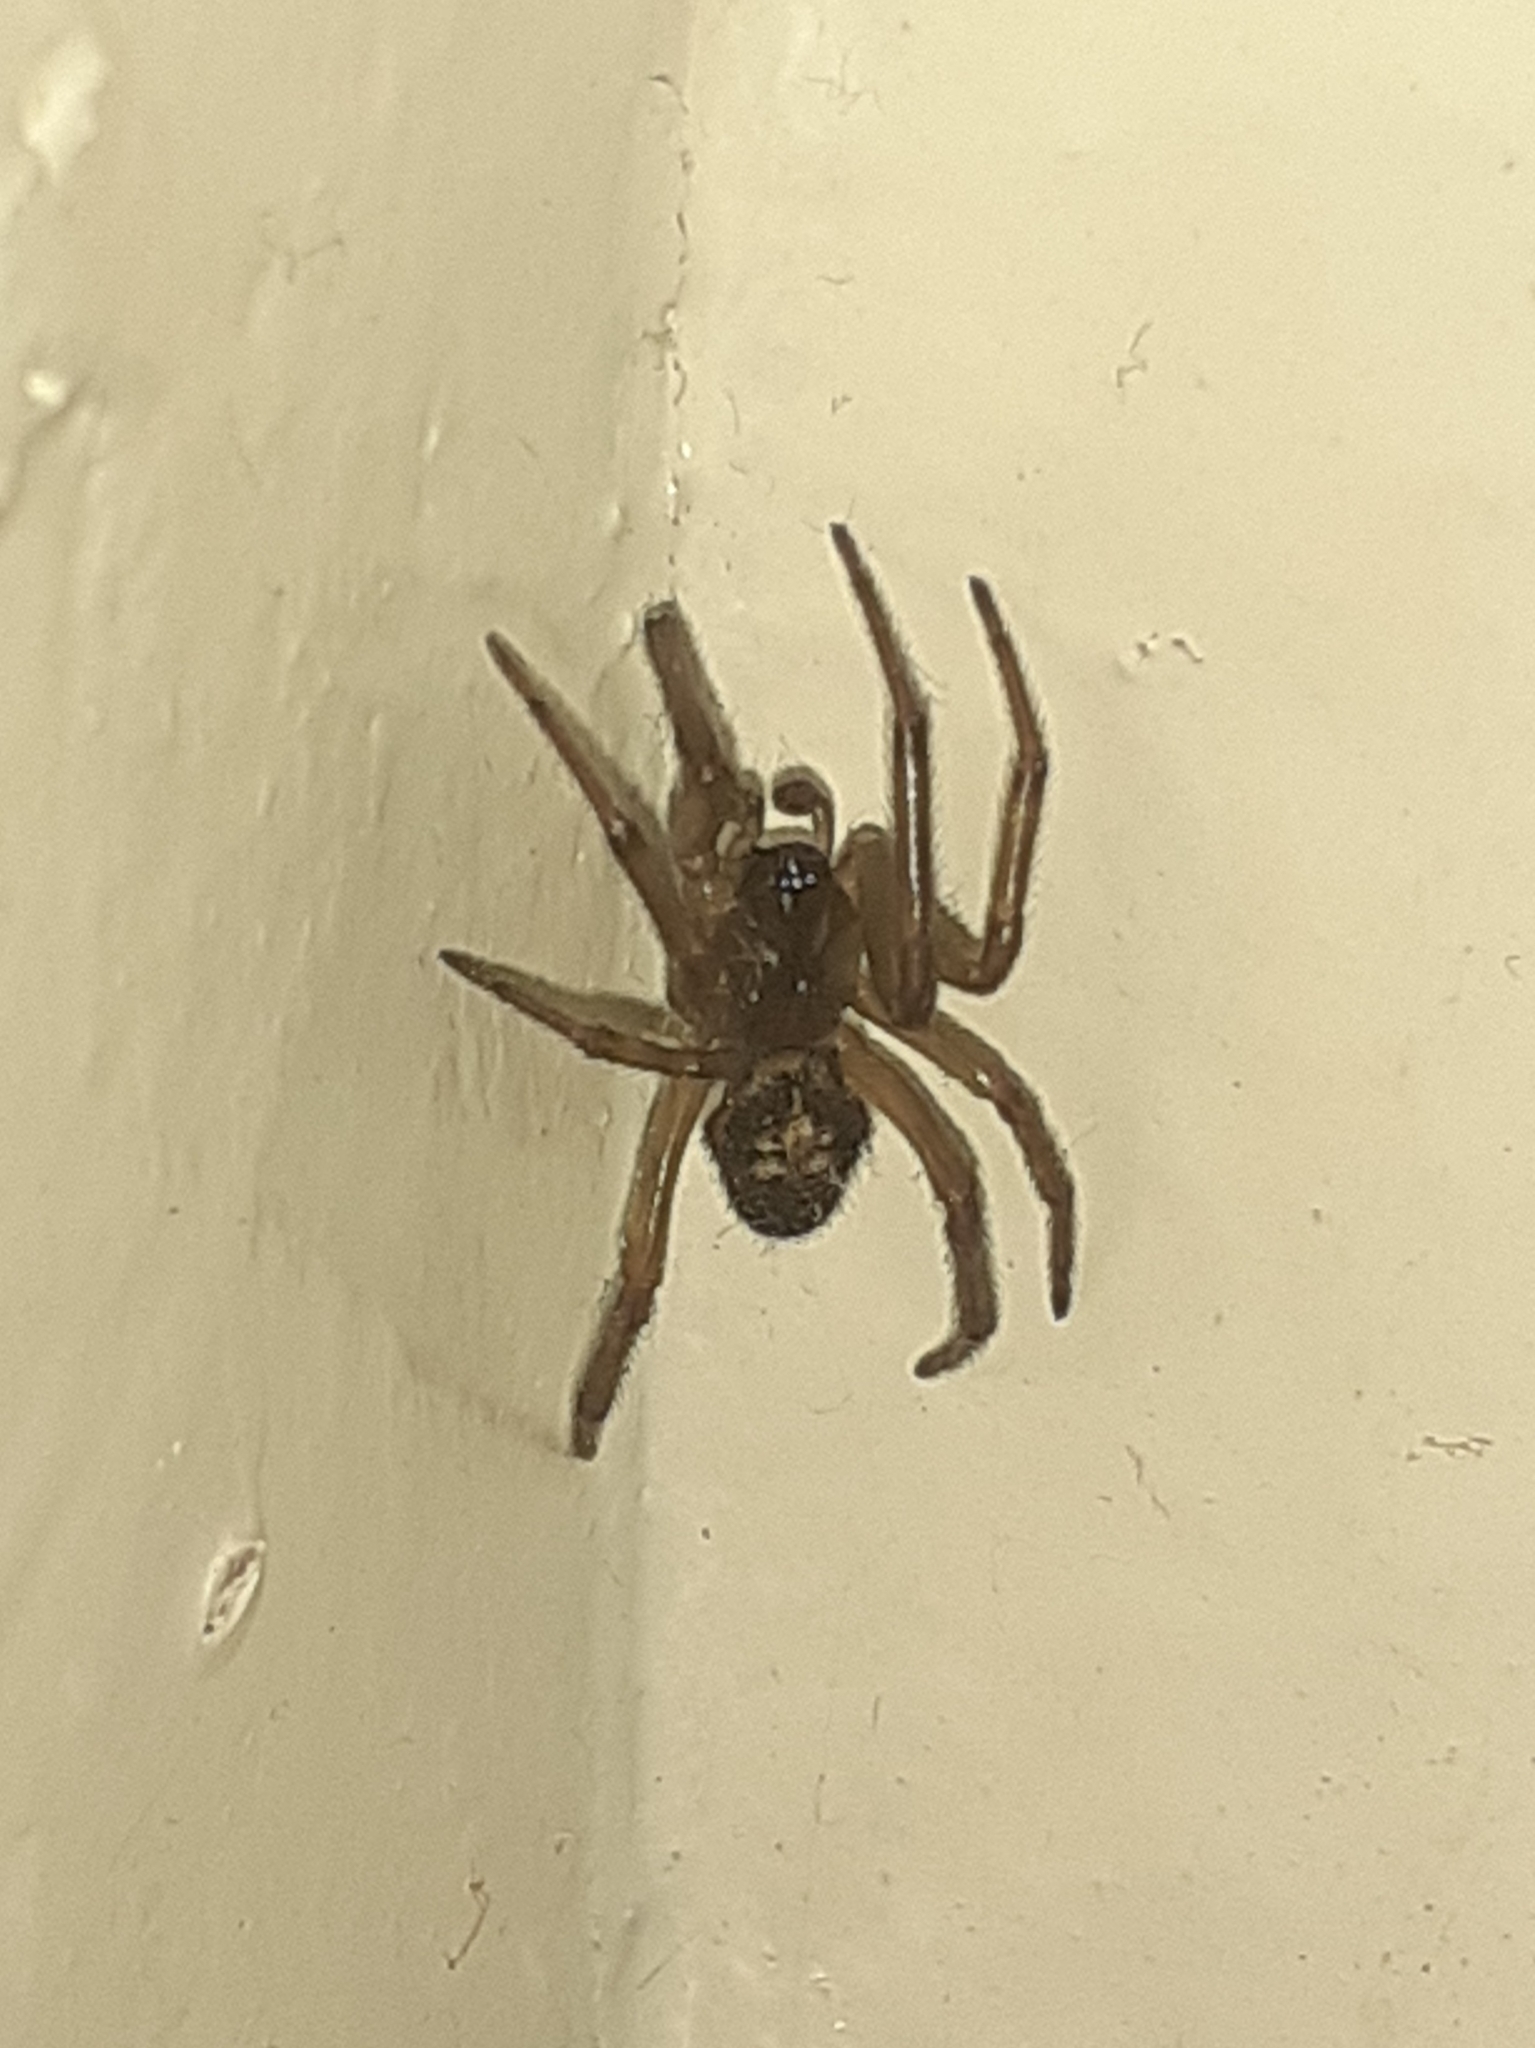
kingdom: Animalia
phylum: Arthropoda
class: Arachnida
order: Araneae
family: Theridiidae
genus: Steatoda
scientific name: Steatoda nobilis
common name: Cobweb weaver
